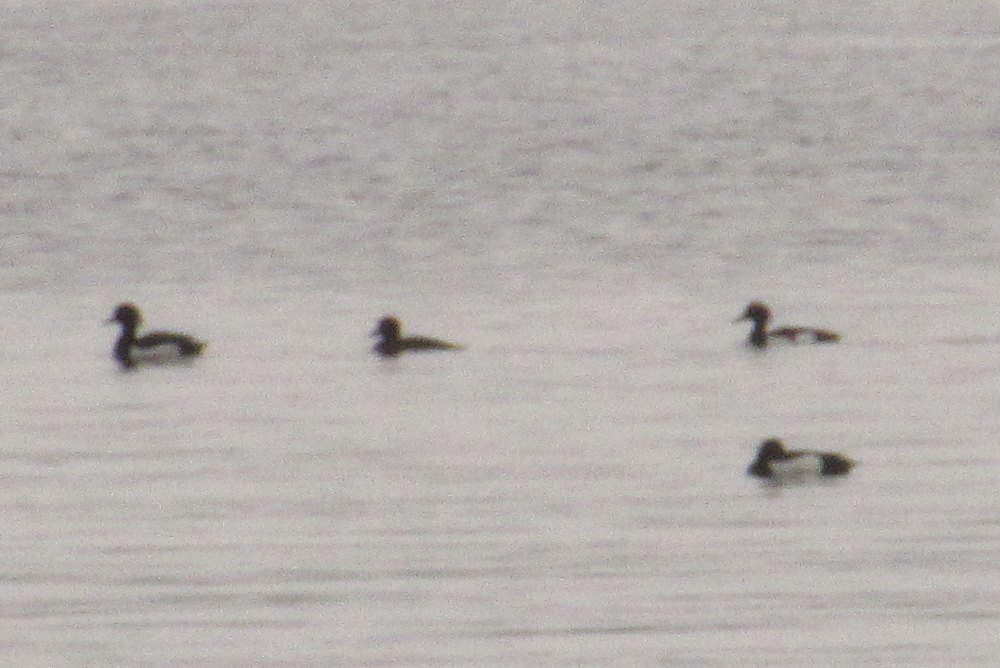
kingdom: Animalia
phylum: Chordata
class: Aves
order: Anseriformes
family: Anatidae
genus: Aythya
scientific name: Aythya fuligula
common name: Tufted duck
